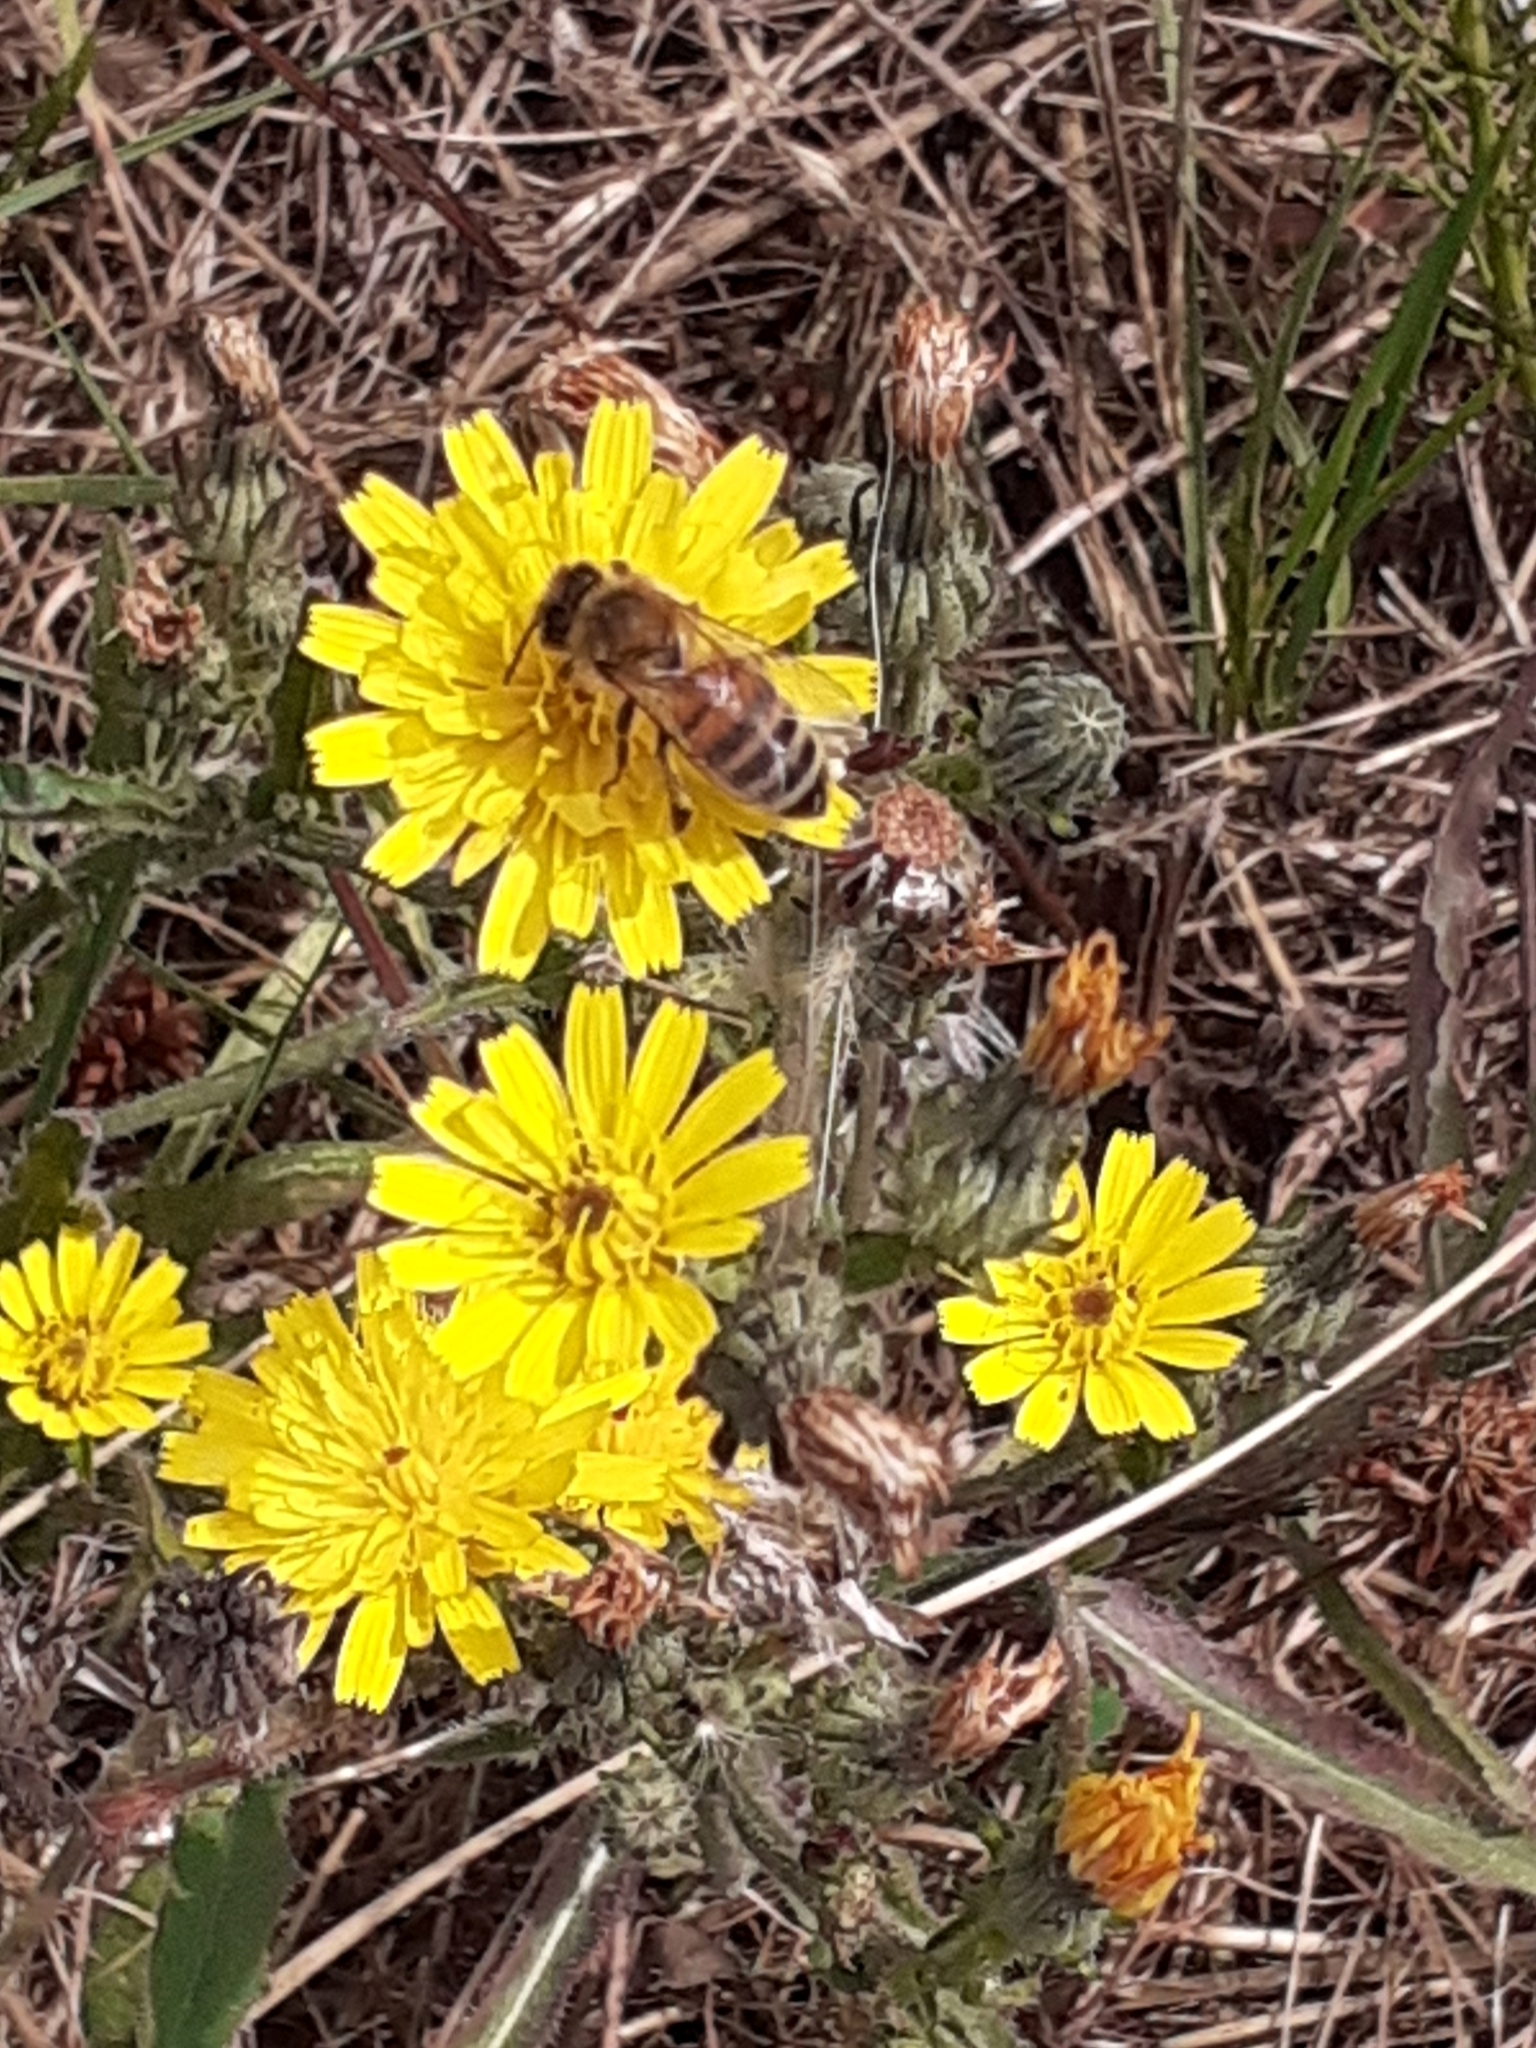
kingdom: Animalia
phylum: Arthropoda
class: Insecta
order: Hymenoptera
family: Apidae
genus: Apis
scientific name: Apis mellifera
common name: Honey bee
